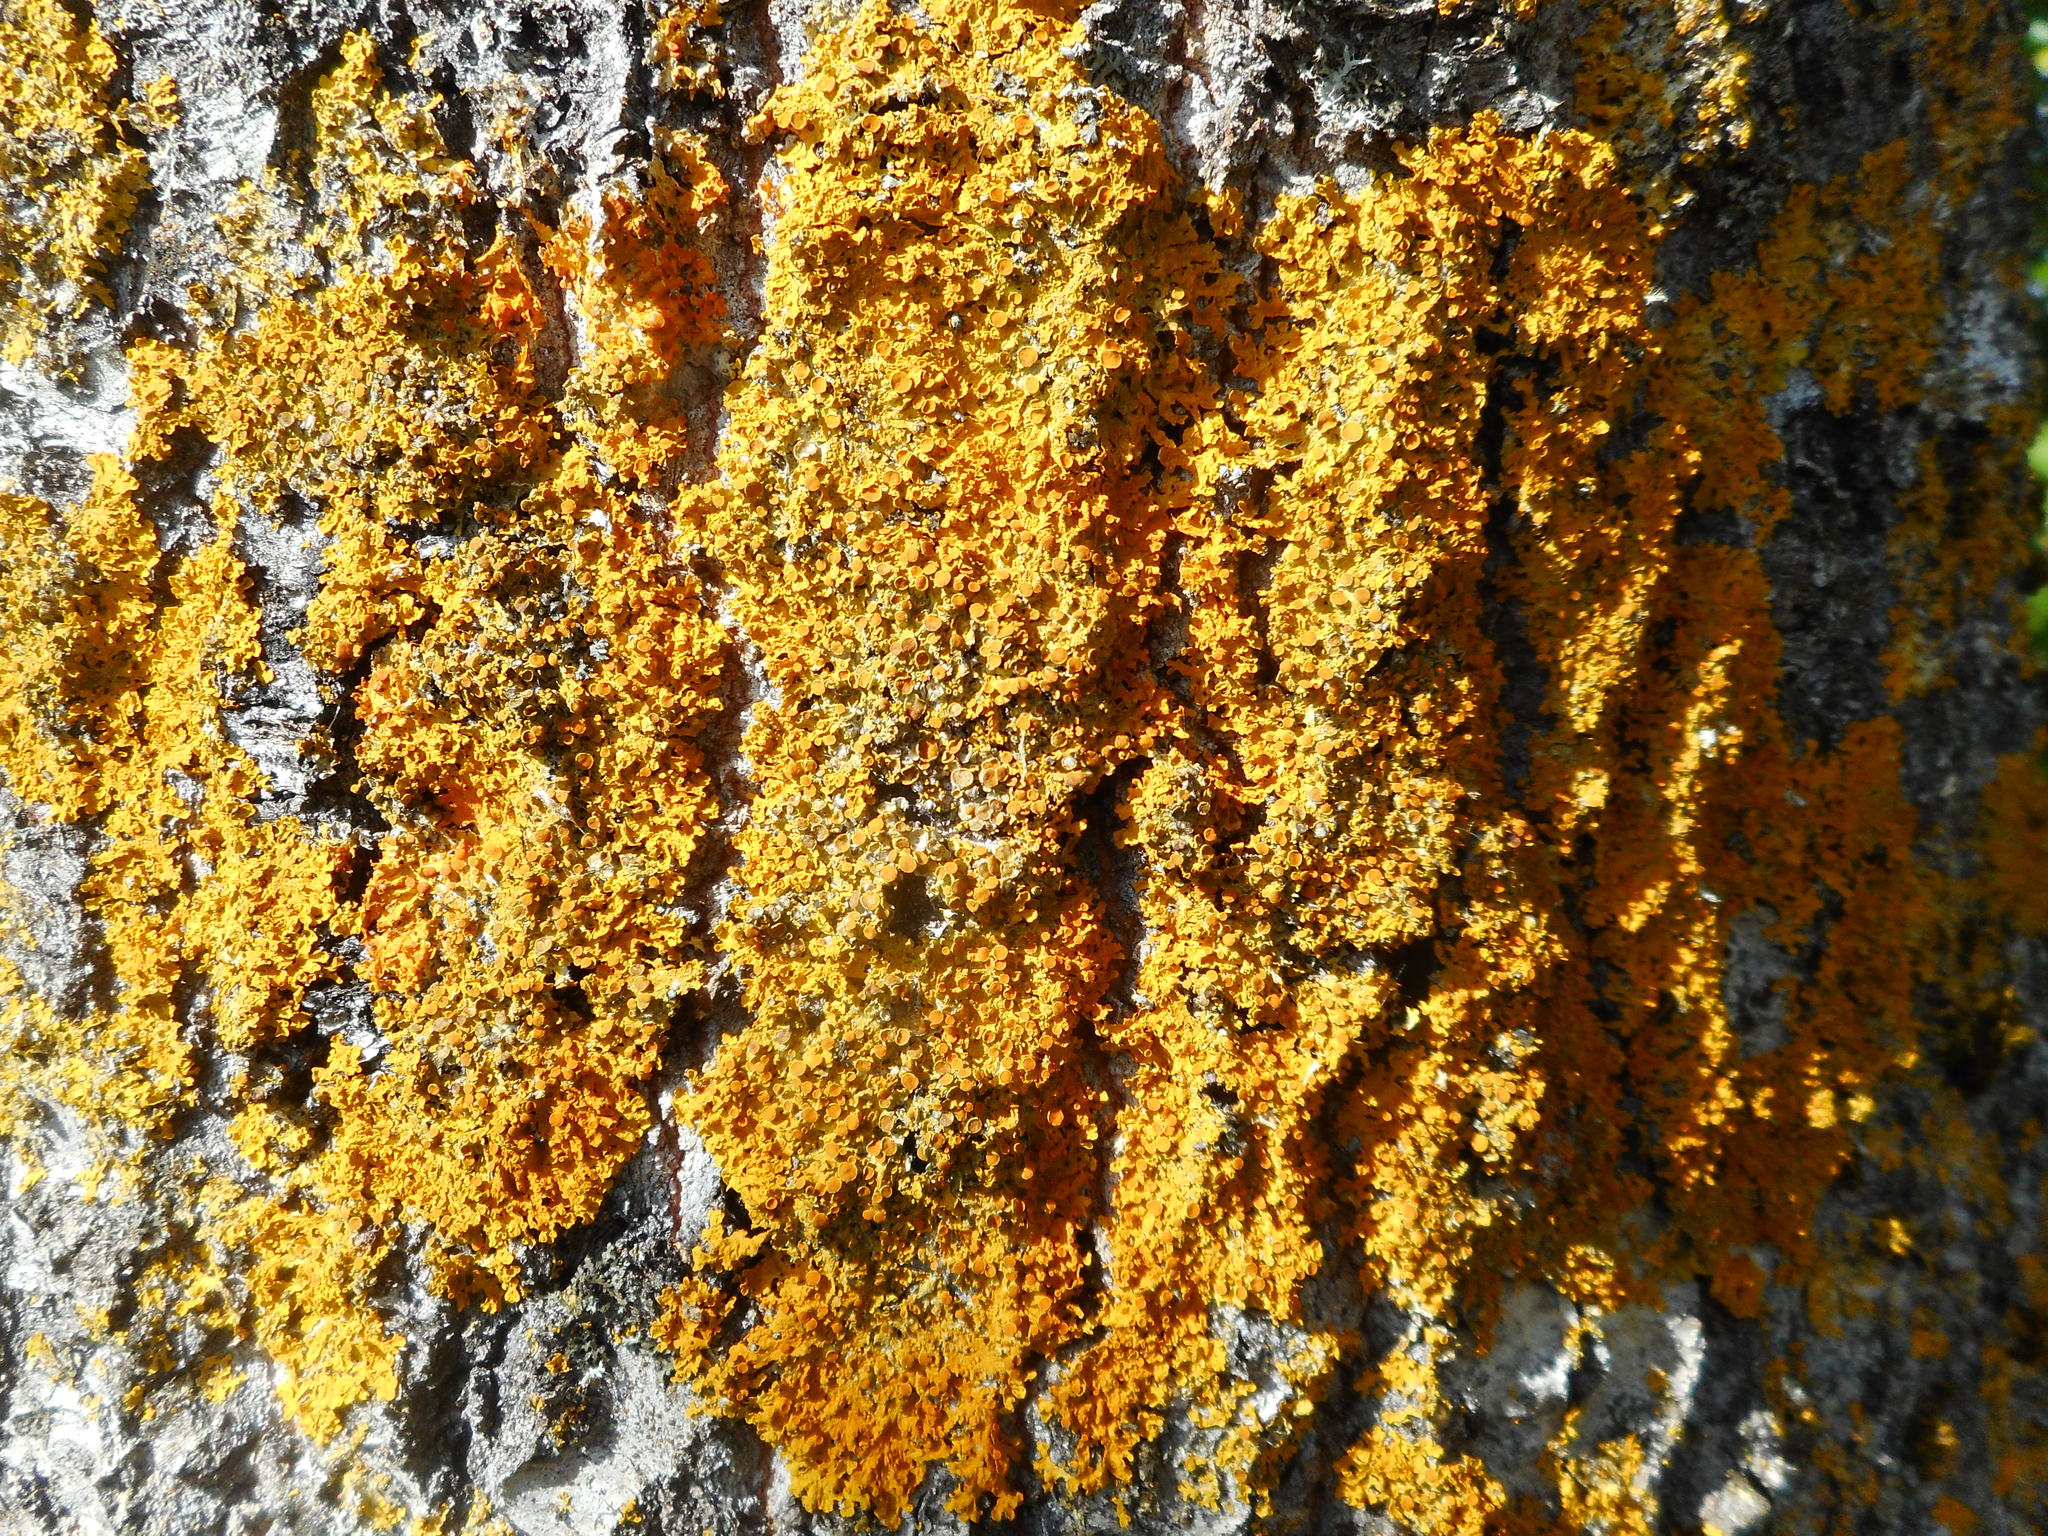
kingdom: Fungi
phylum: Ascomycota
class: Lecanoromycetes
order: Teloschistales
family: Teloschistaceae
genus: Xanthoria
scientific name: Xanthoria parietina
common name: Common orange lichen
